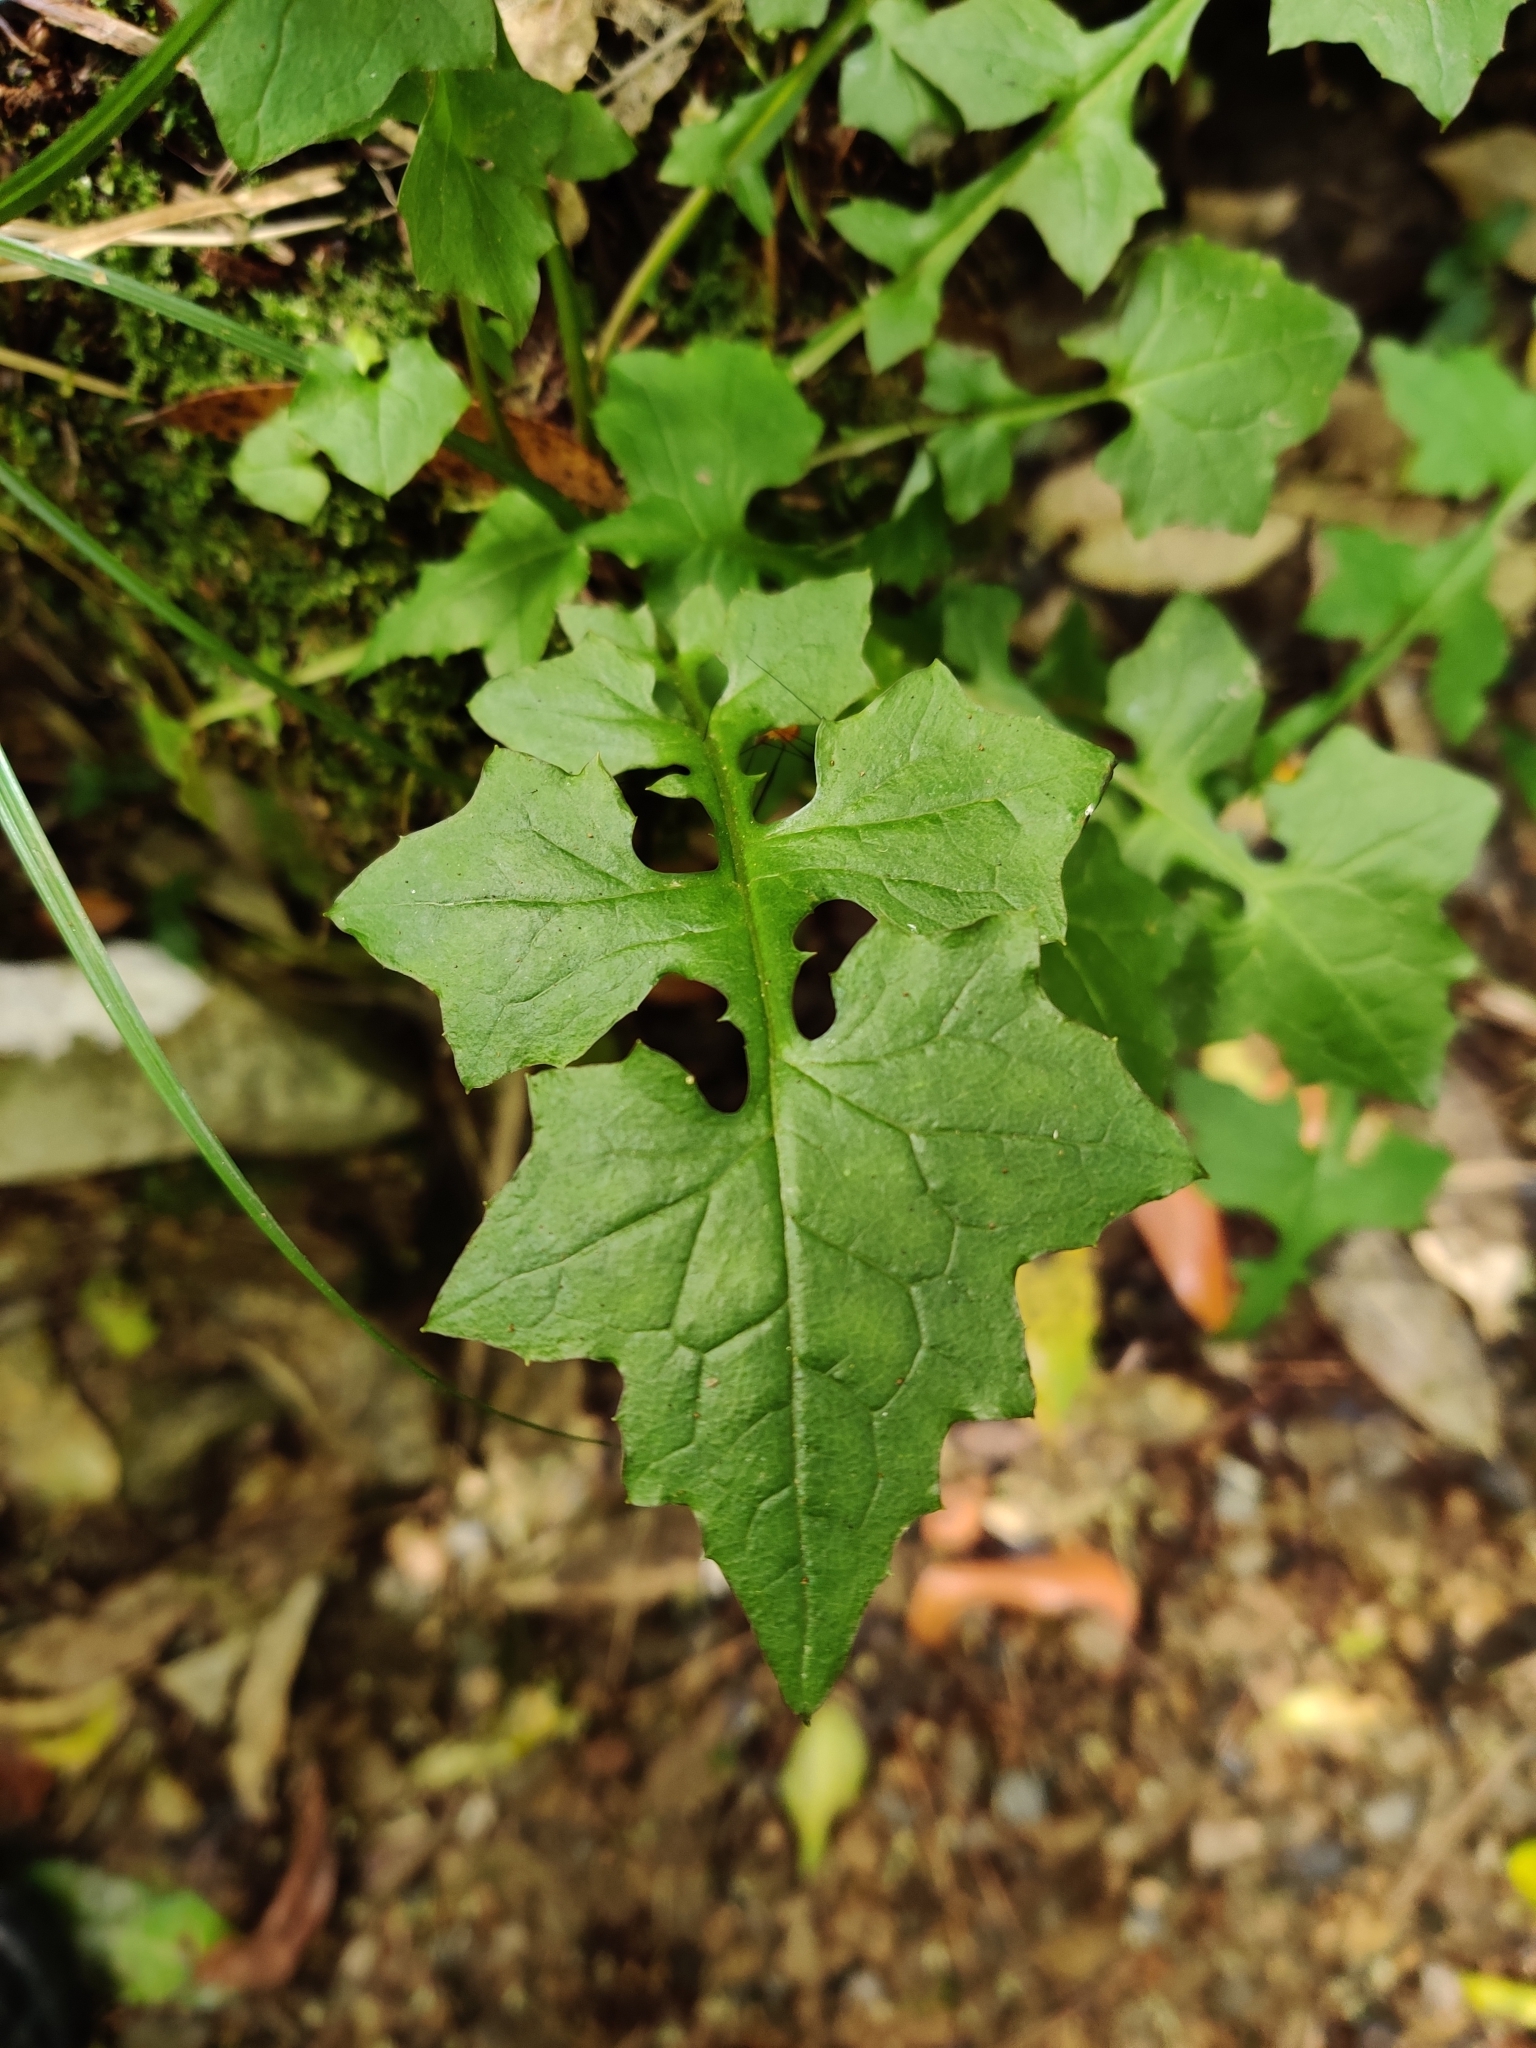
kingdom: Plantae
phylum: Tracheophyta
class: Magnoliopsida
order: Asterales
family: Asteraceae
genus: Mycelis
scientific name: Mycelis muralis
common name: Wall lettuce
